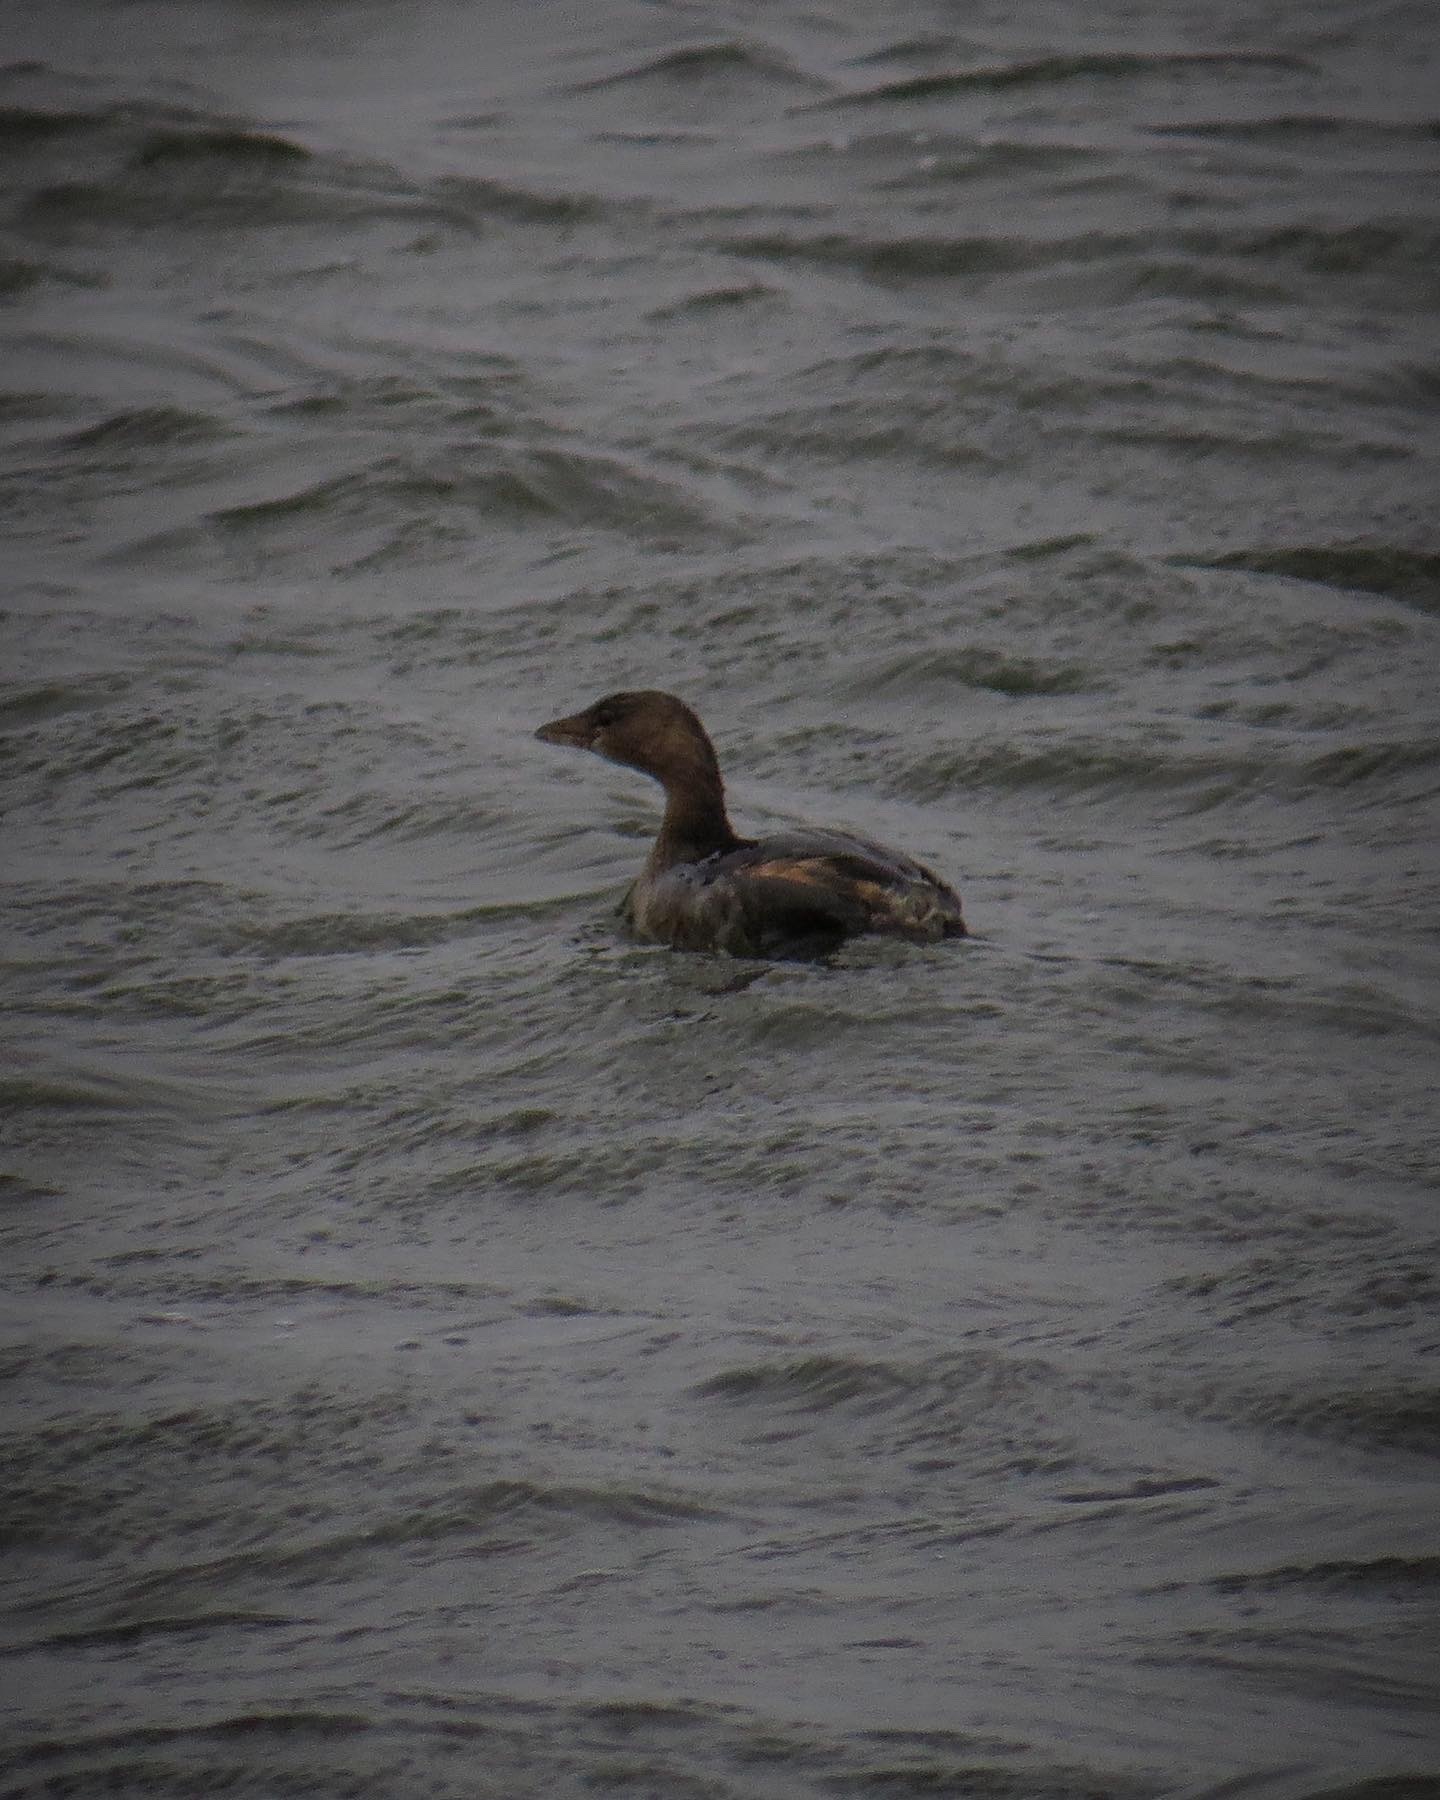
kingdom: Animalia
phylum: Chordata
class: Aves
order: Podicipediformes
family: Podicipedidae
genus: Podilymbus
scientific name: Podilymbus podiceps
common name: Pied-billed grebe
